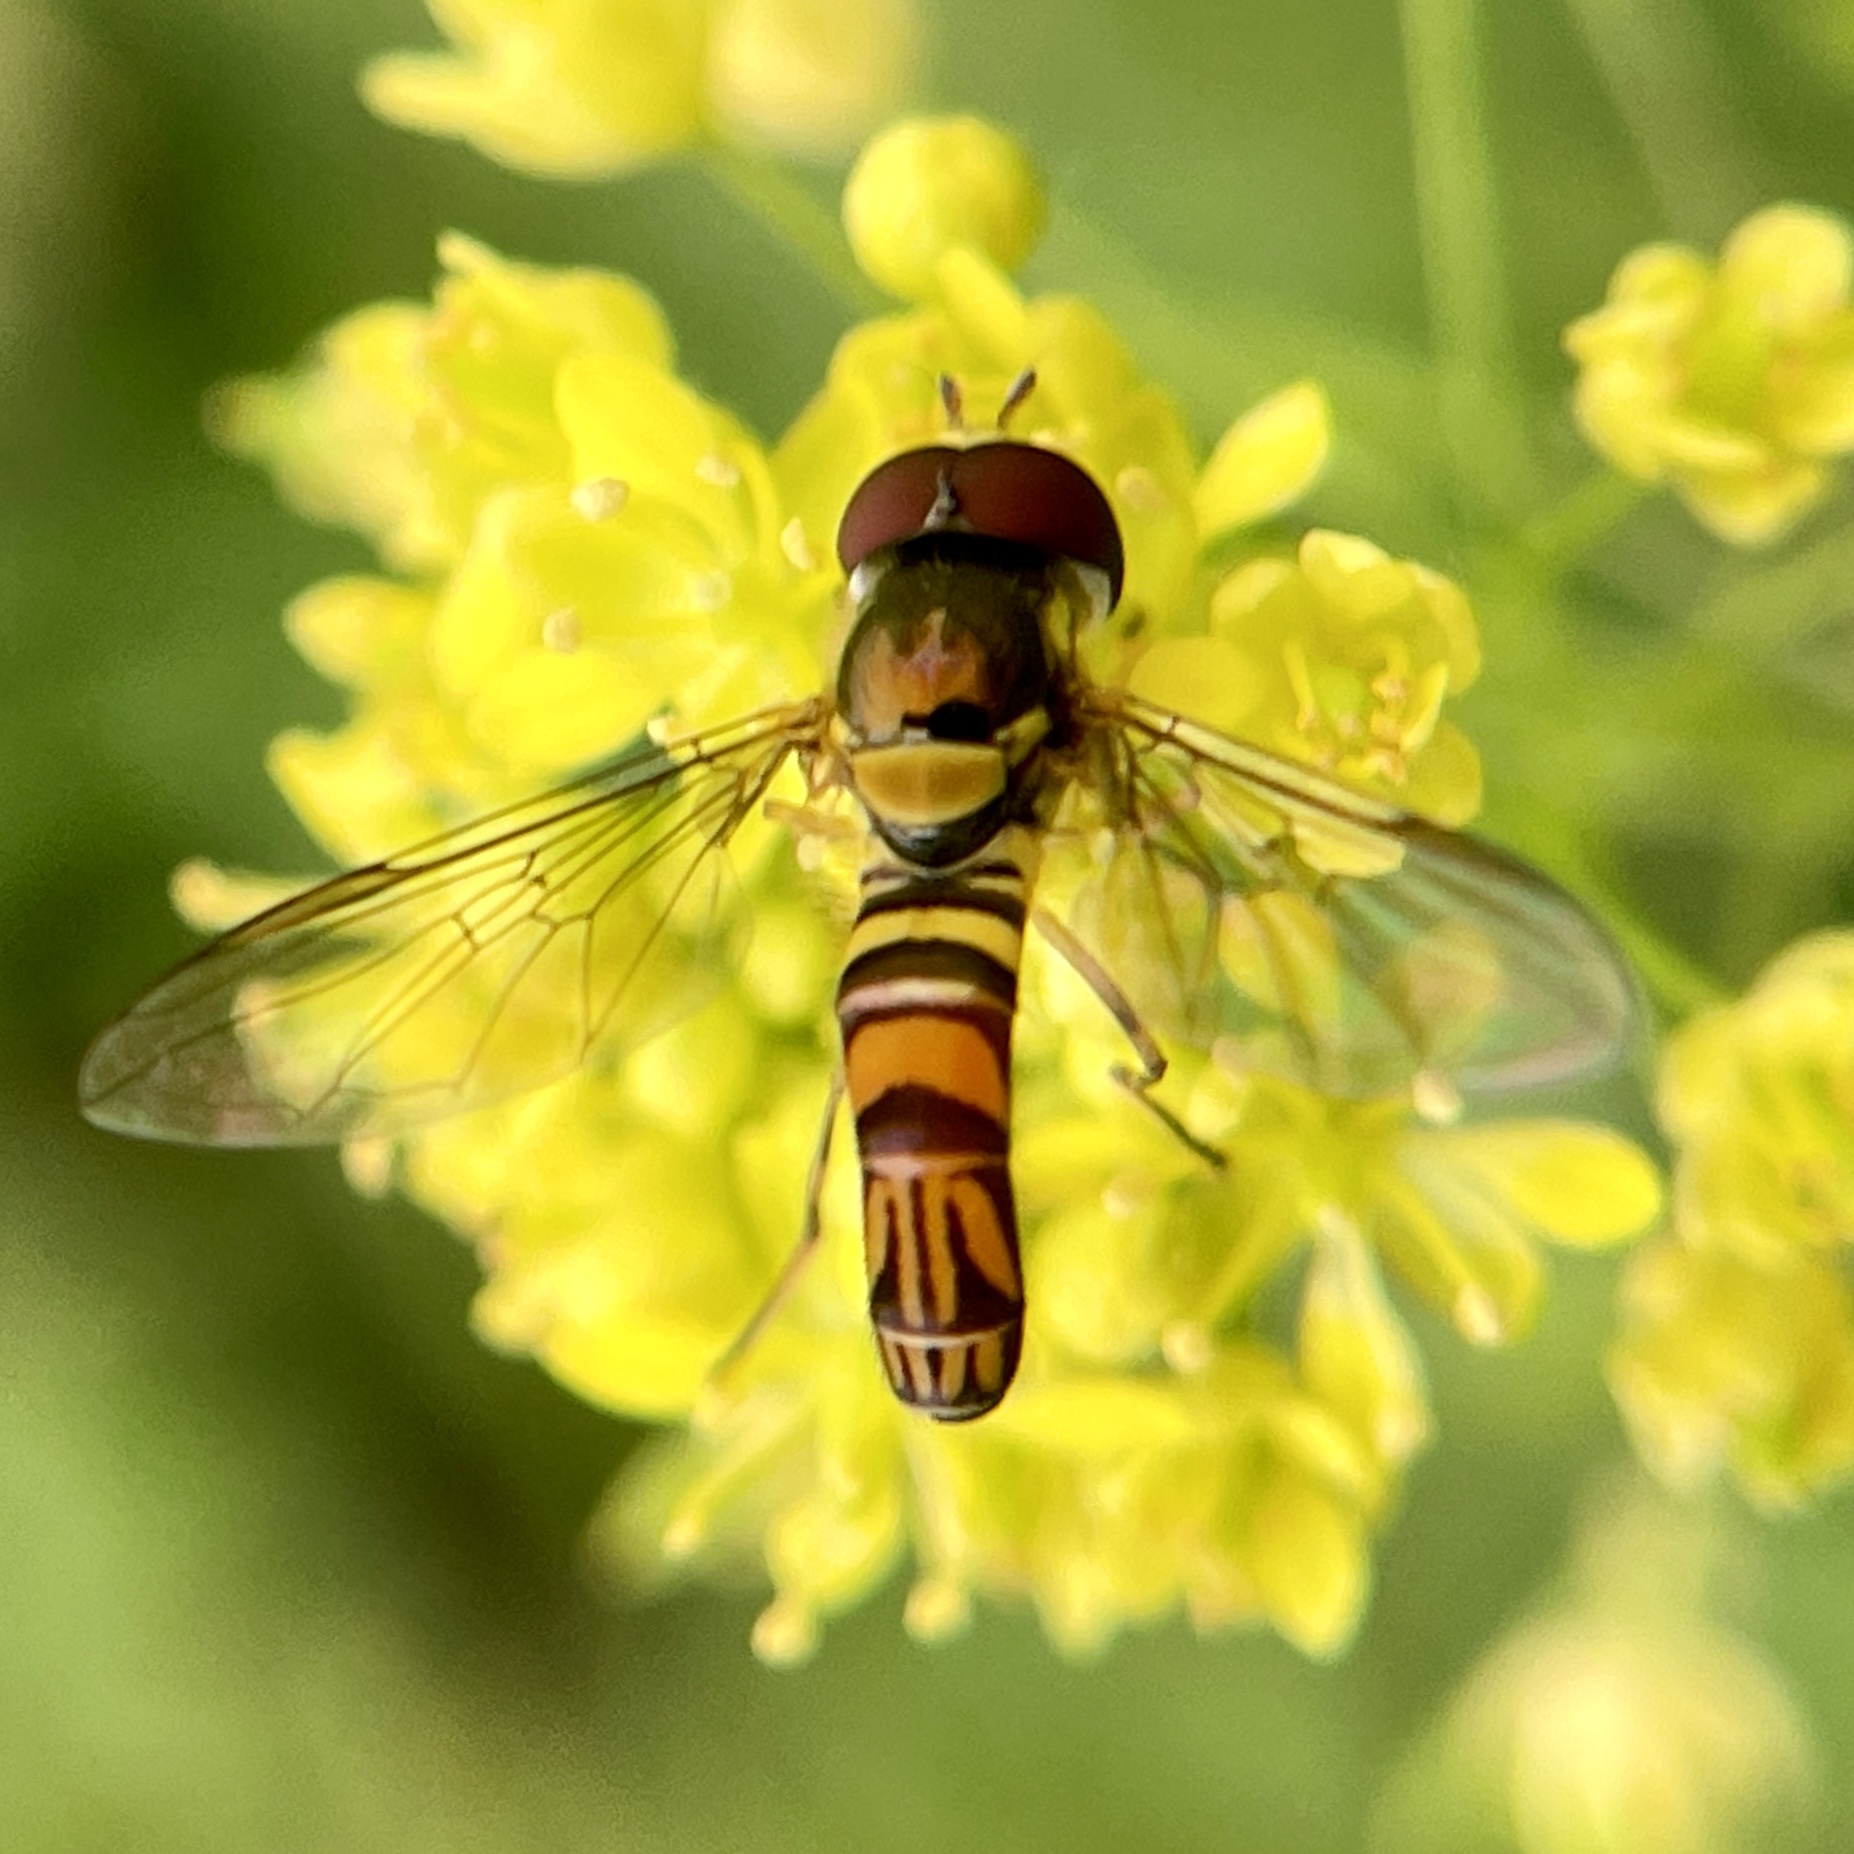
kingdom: Animalia
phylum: Arthropoda
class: Insecta
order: Diptera
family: Syrphidae
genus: Allograpta
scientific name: Allograpta obliqua
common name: Common oblique syrphid
